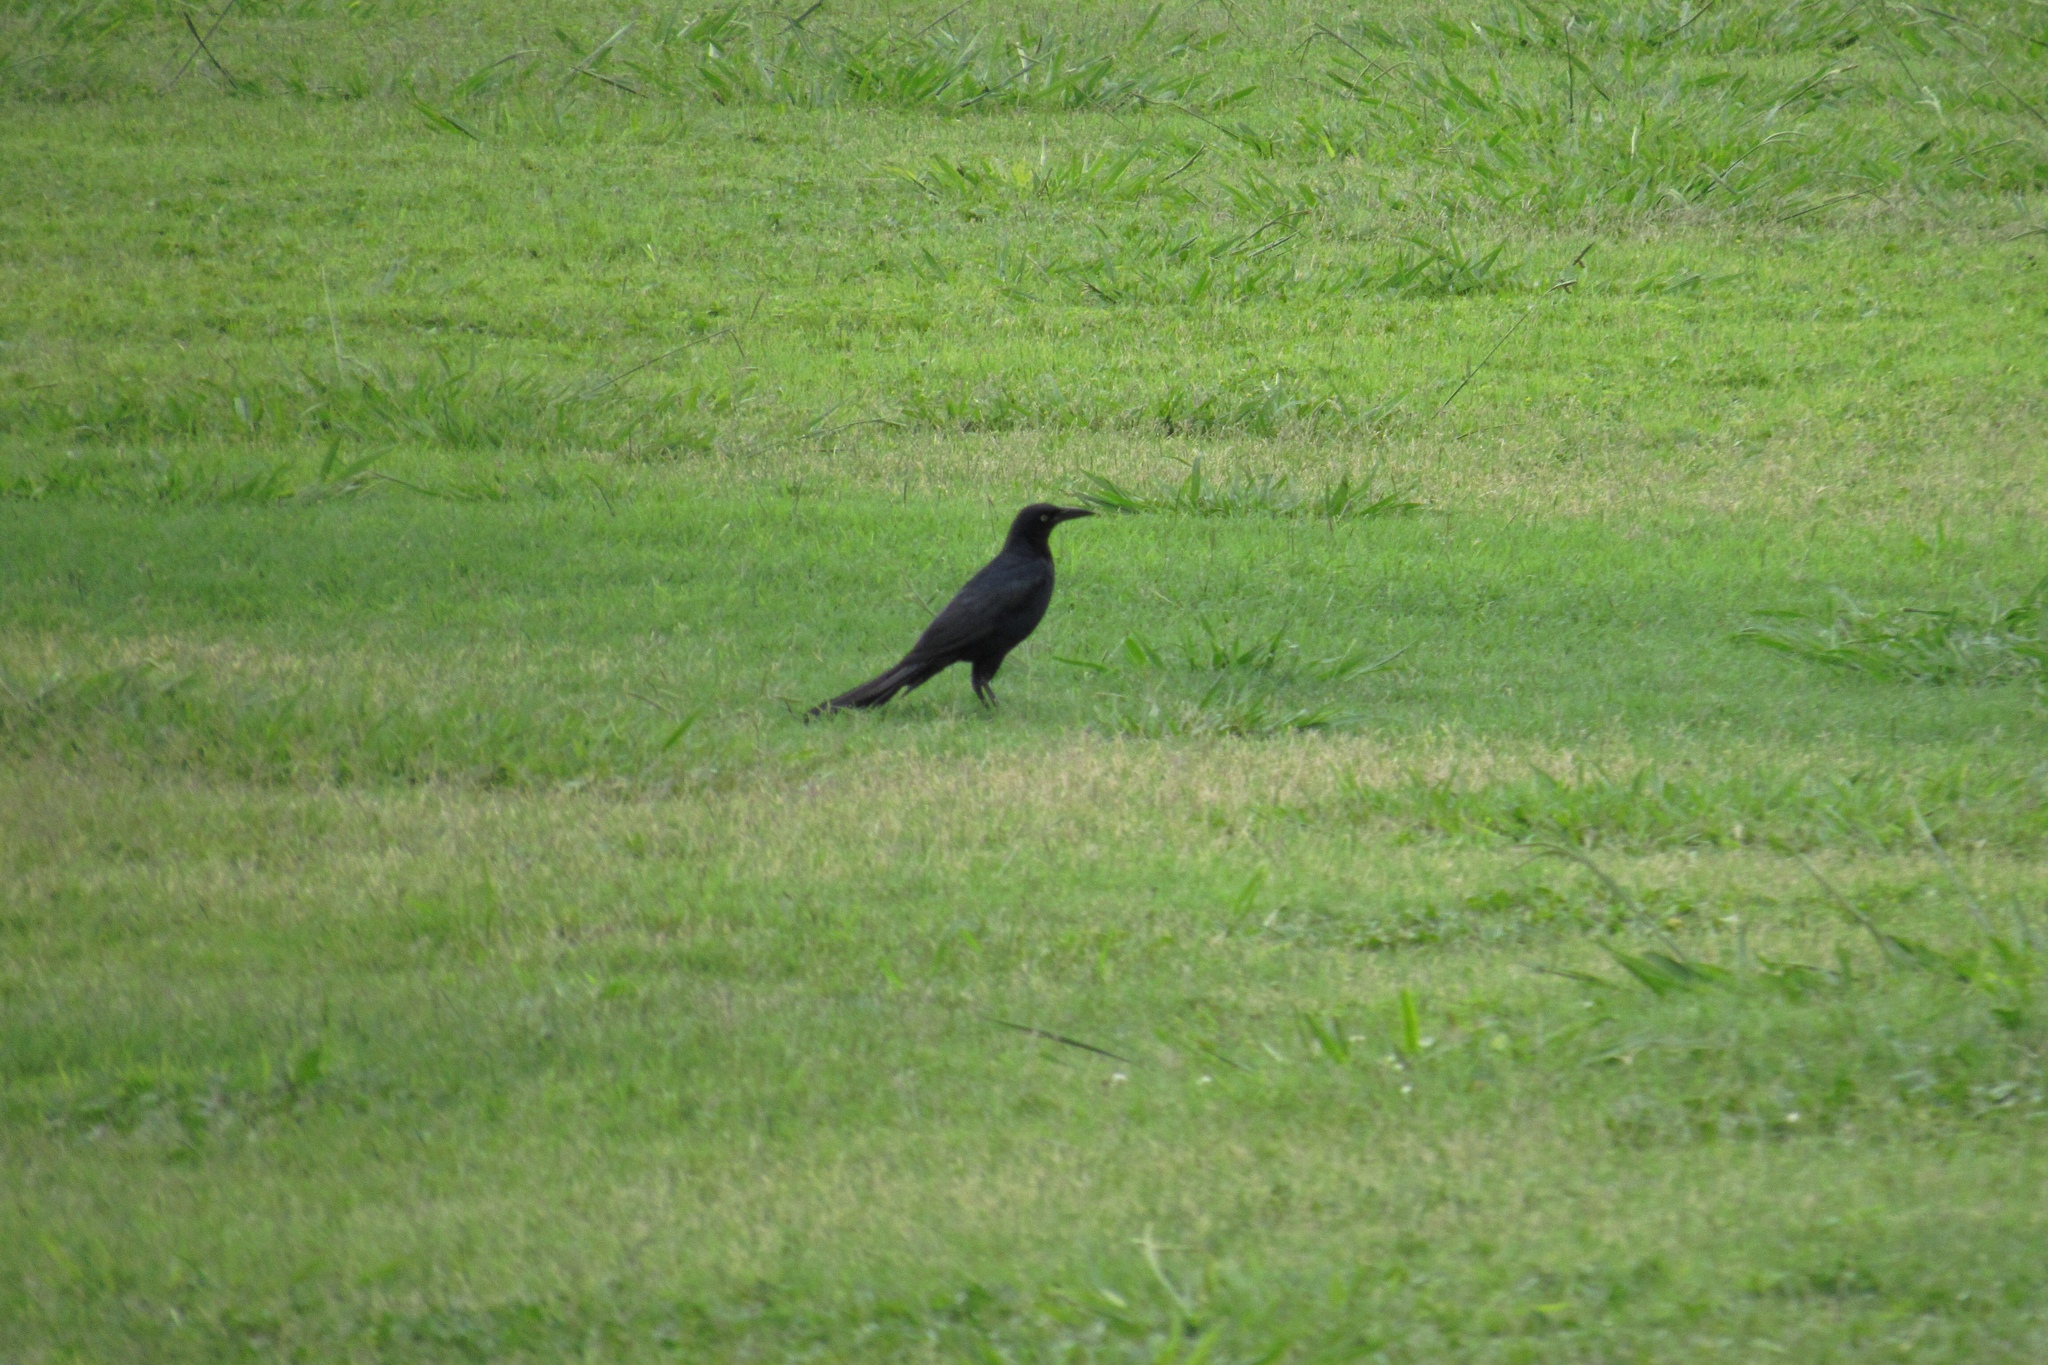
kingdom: Animalia
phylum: Chordata
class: Aves
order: Passeriformes
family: Icteridae
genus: Quiscalus
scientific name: Quiscalus mexicanus
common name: Great-tailed grackle
